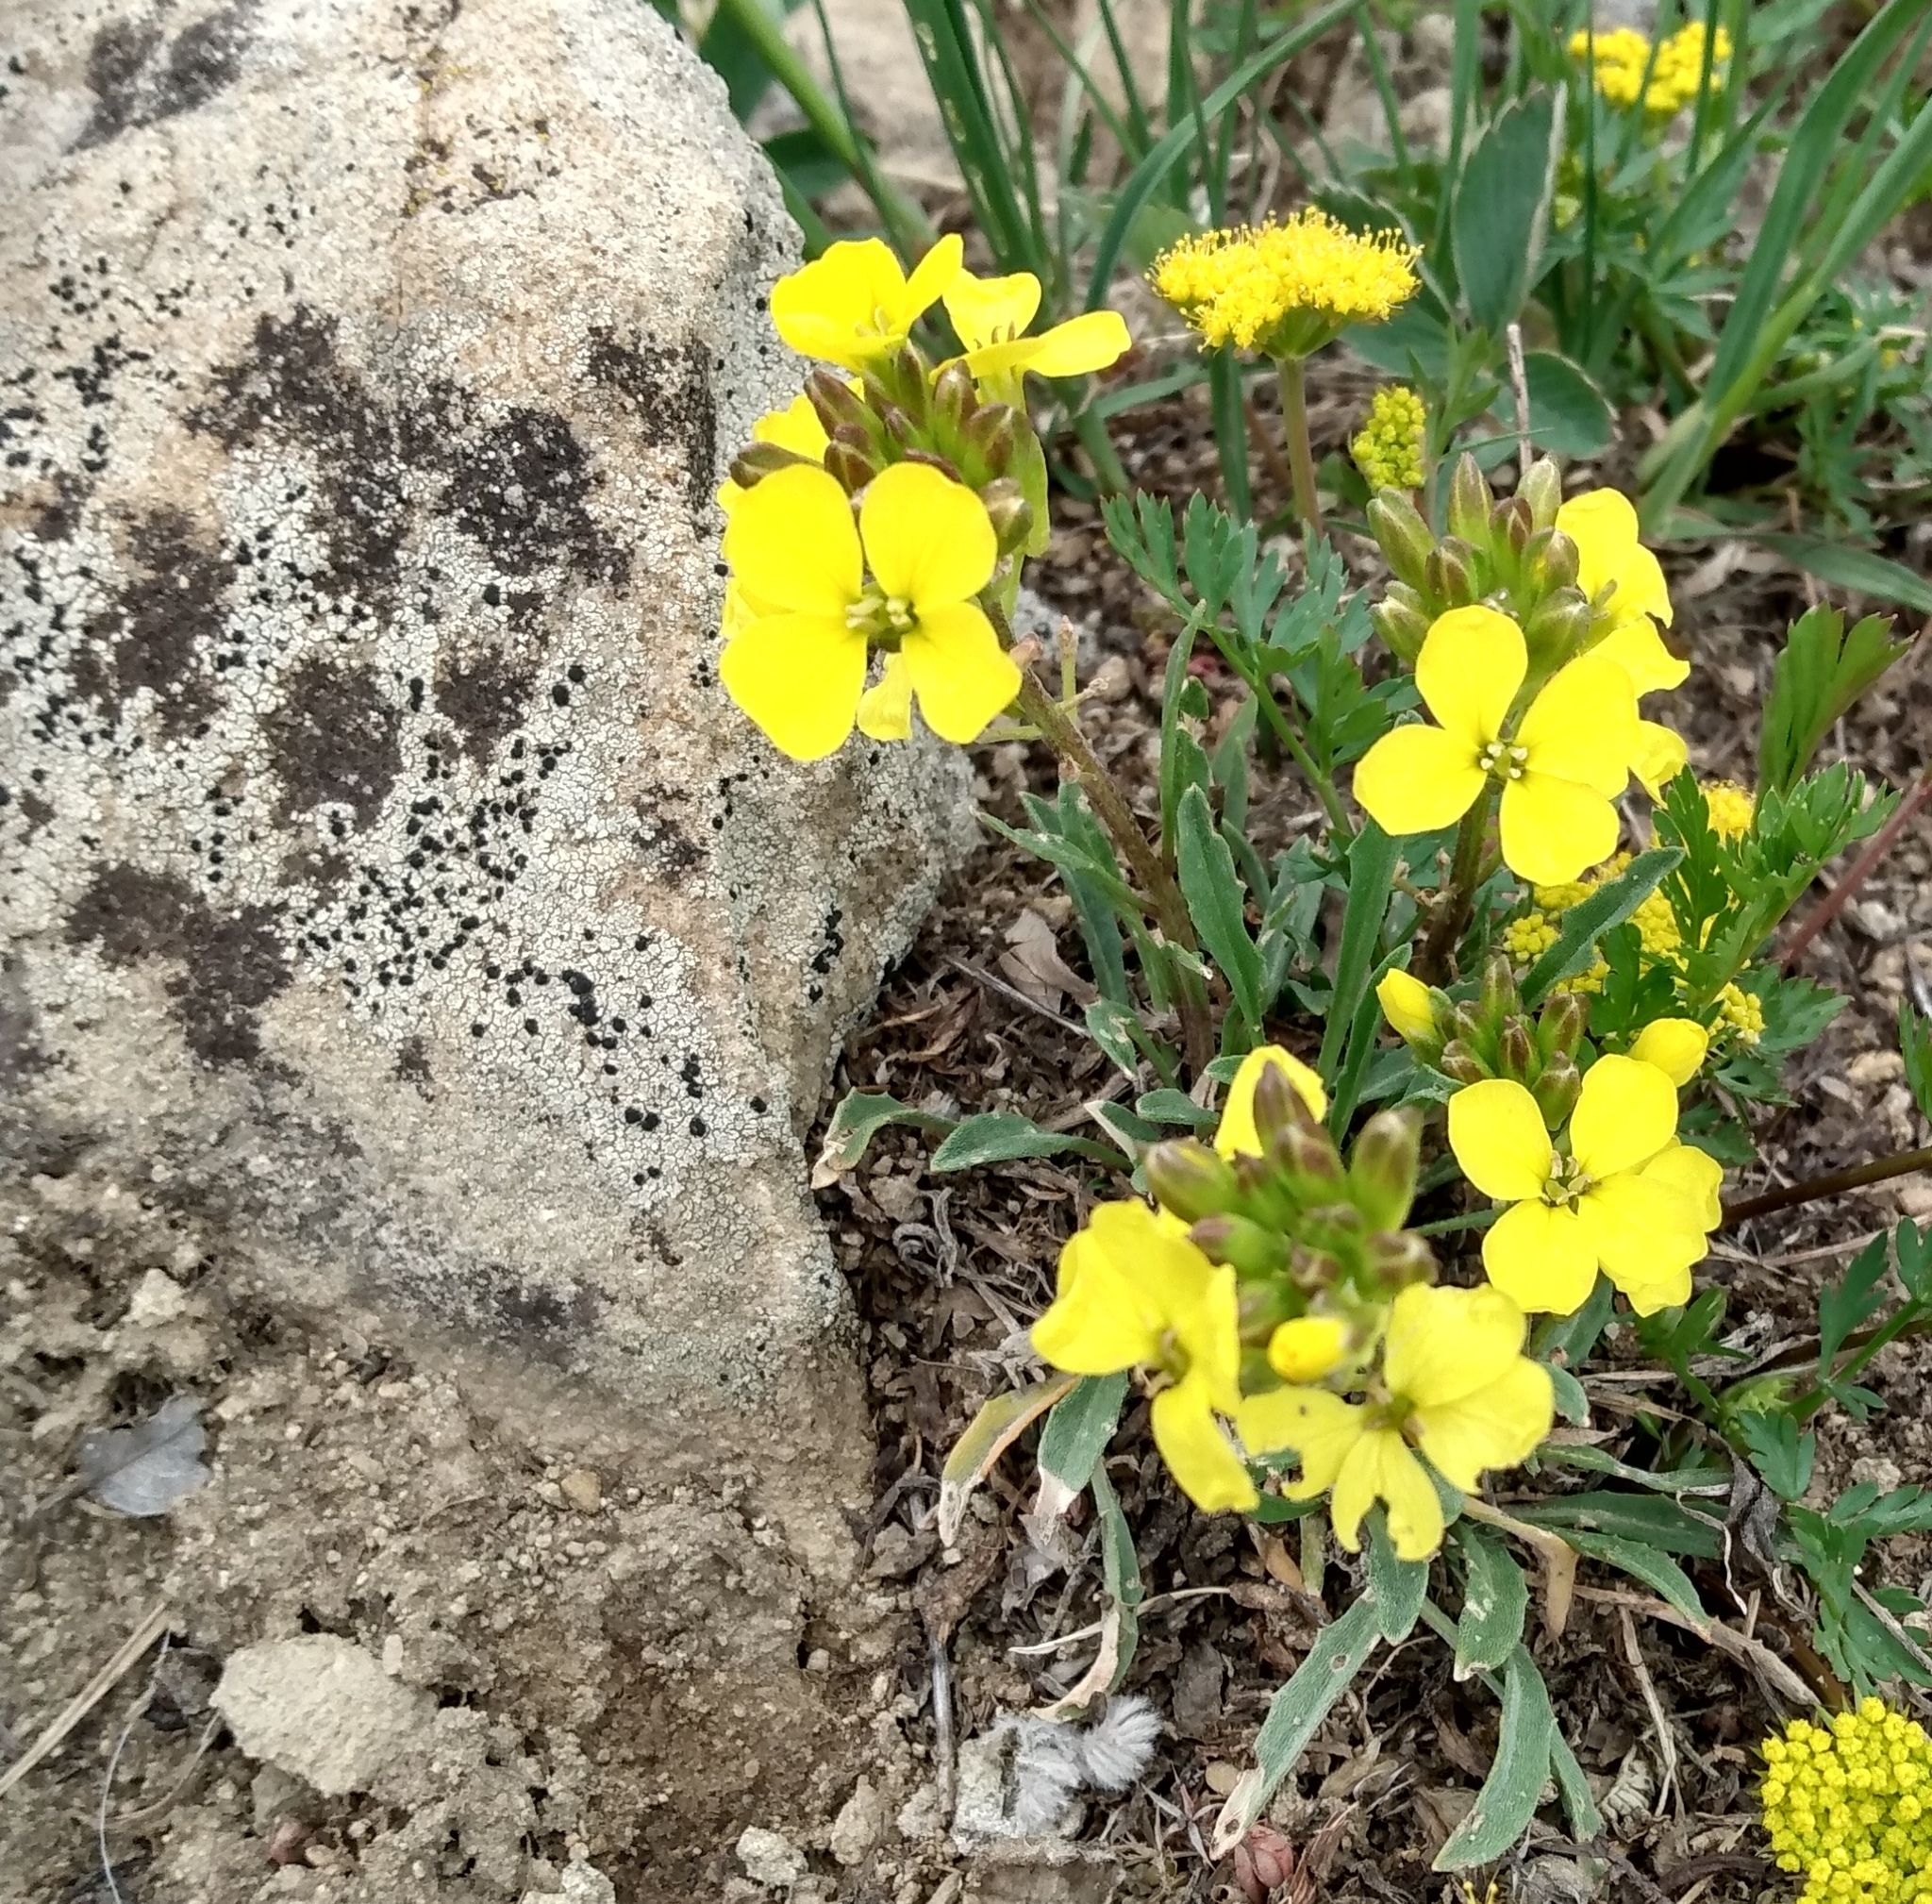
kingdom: Plantae
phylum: Tracheophyta
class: Magnoliopsida
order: Brassicales
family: Brassicaceae
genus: Erysimum
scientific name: Erysimum capitatum
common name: Western wallflower
